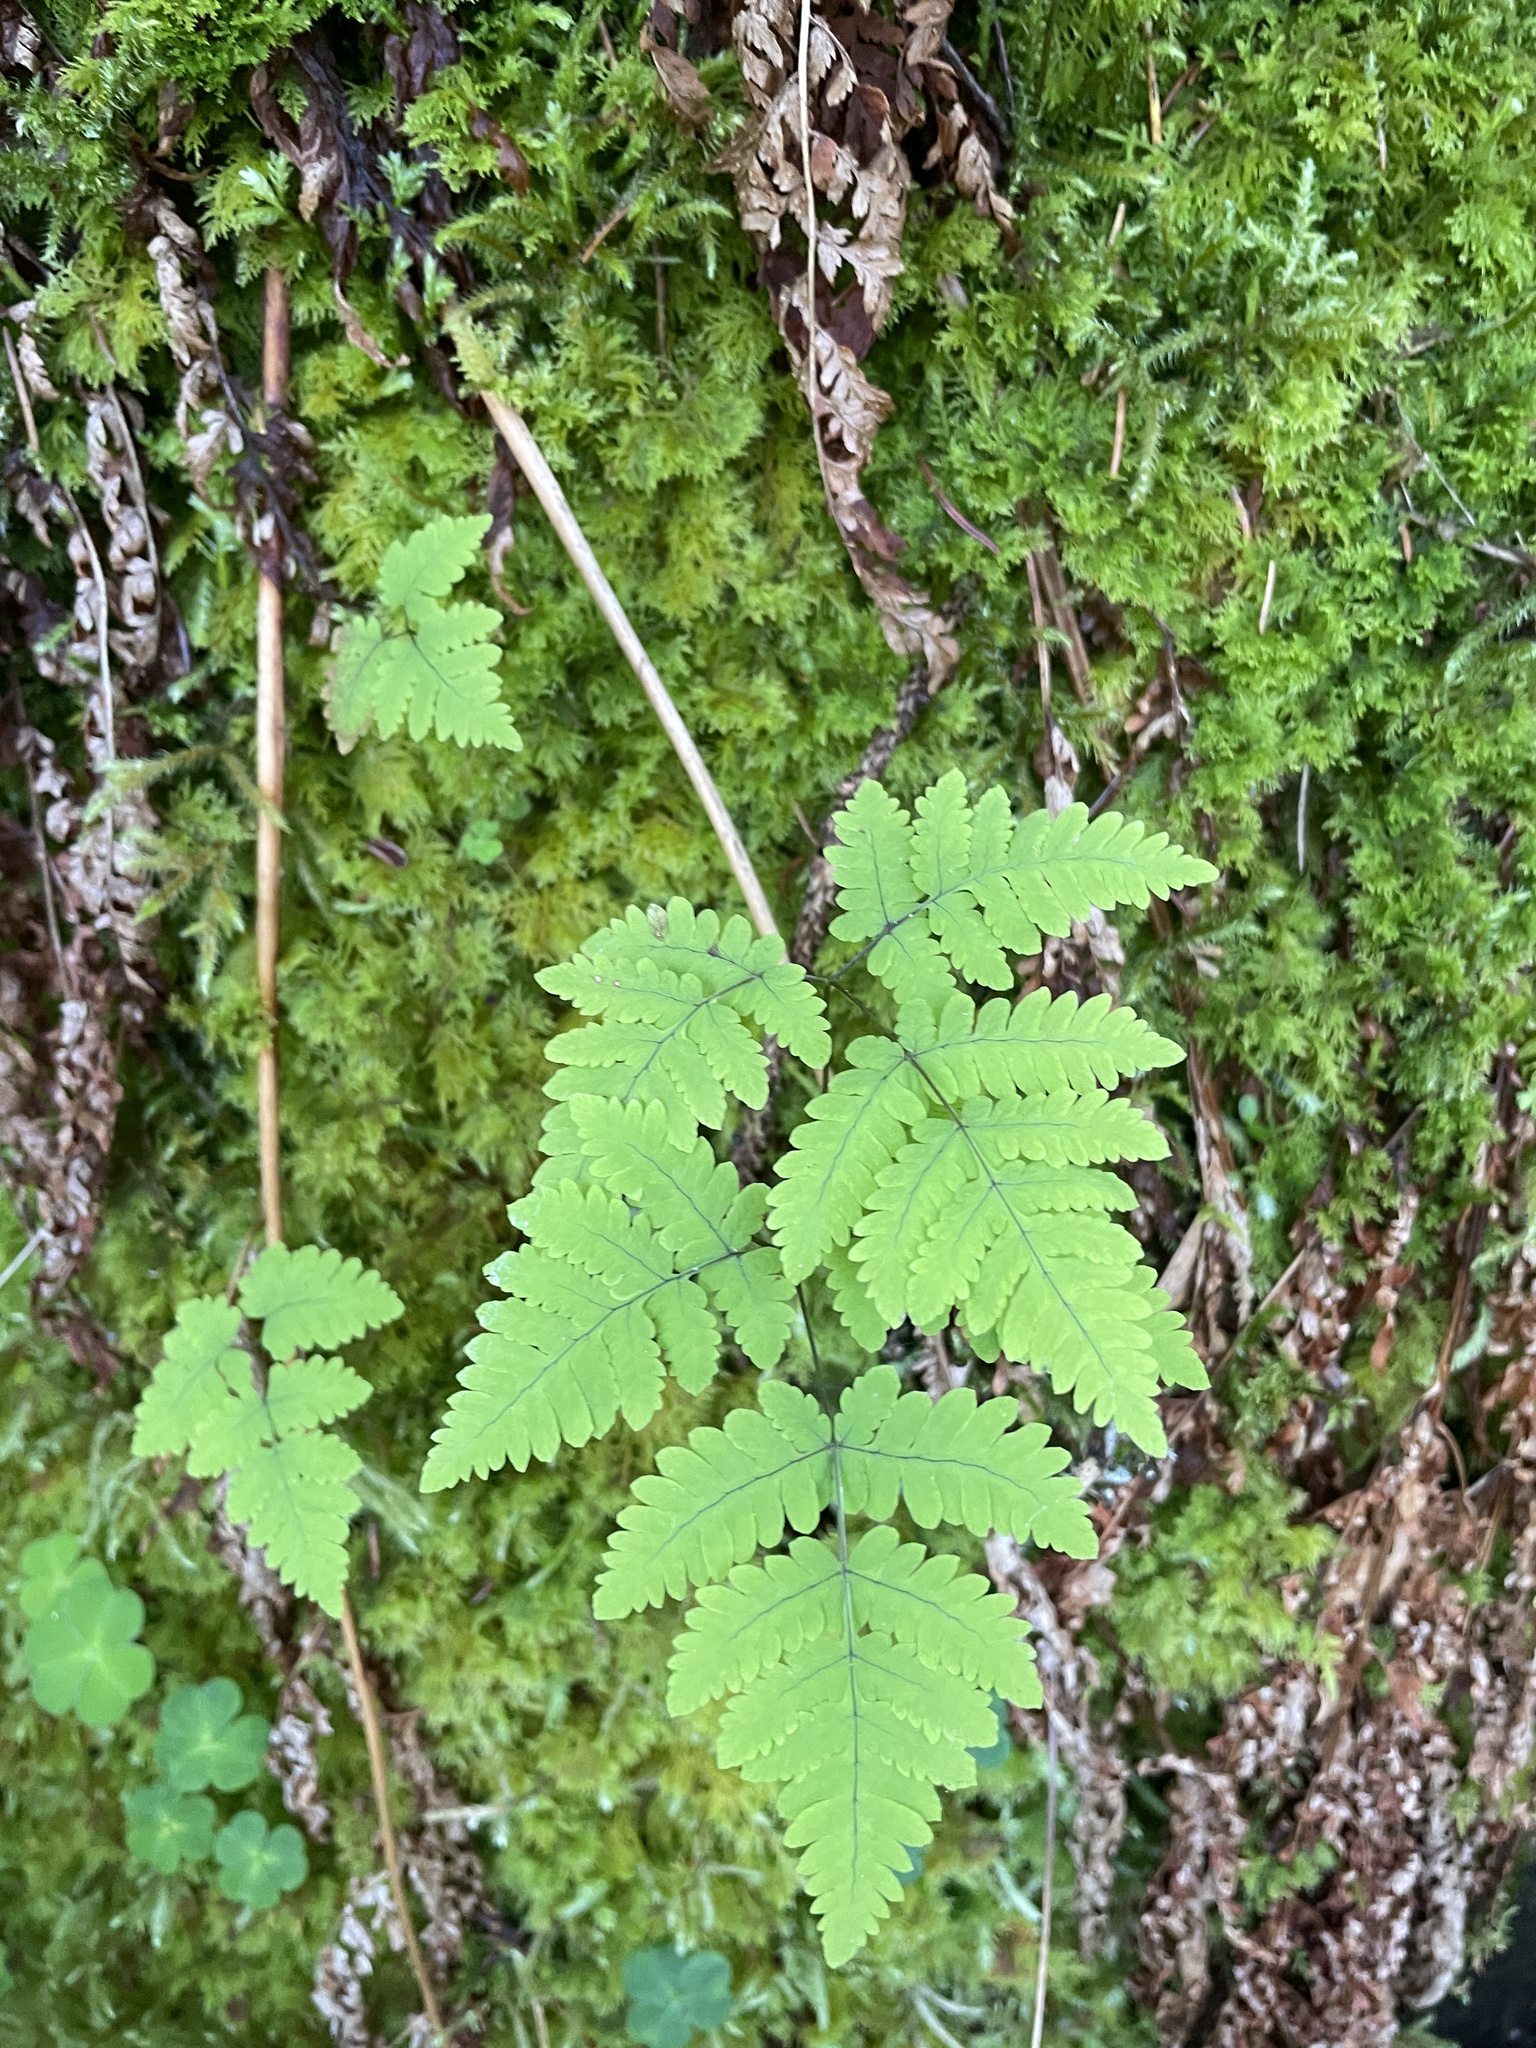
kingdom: Plantae
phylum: Tracheophyta
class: Polypodiopsida
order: Polypodiales
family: Cystopteridaceae
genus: Gymnocarpium
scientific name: Gymnocarpium dryopteris
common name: Oak fern
